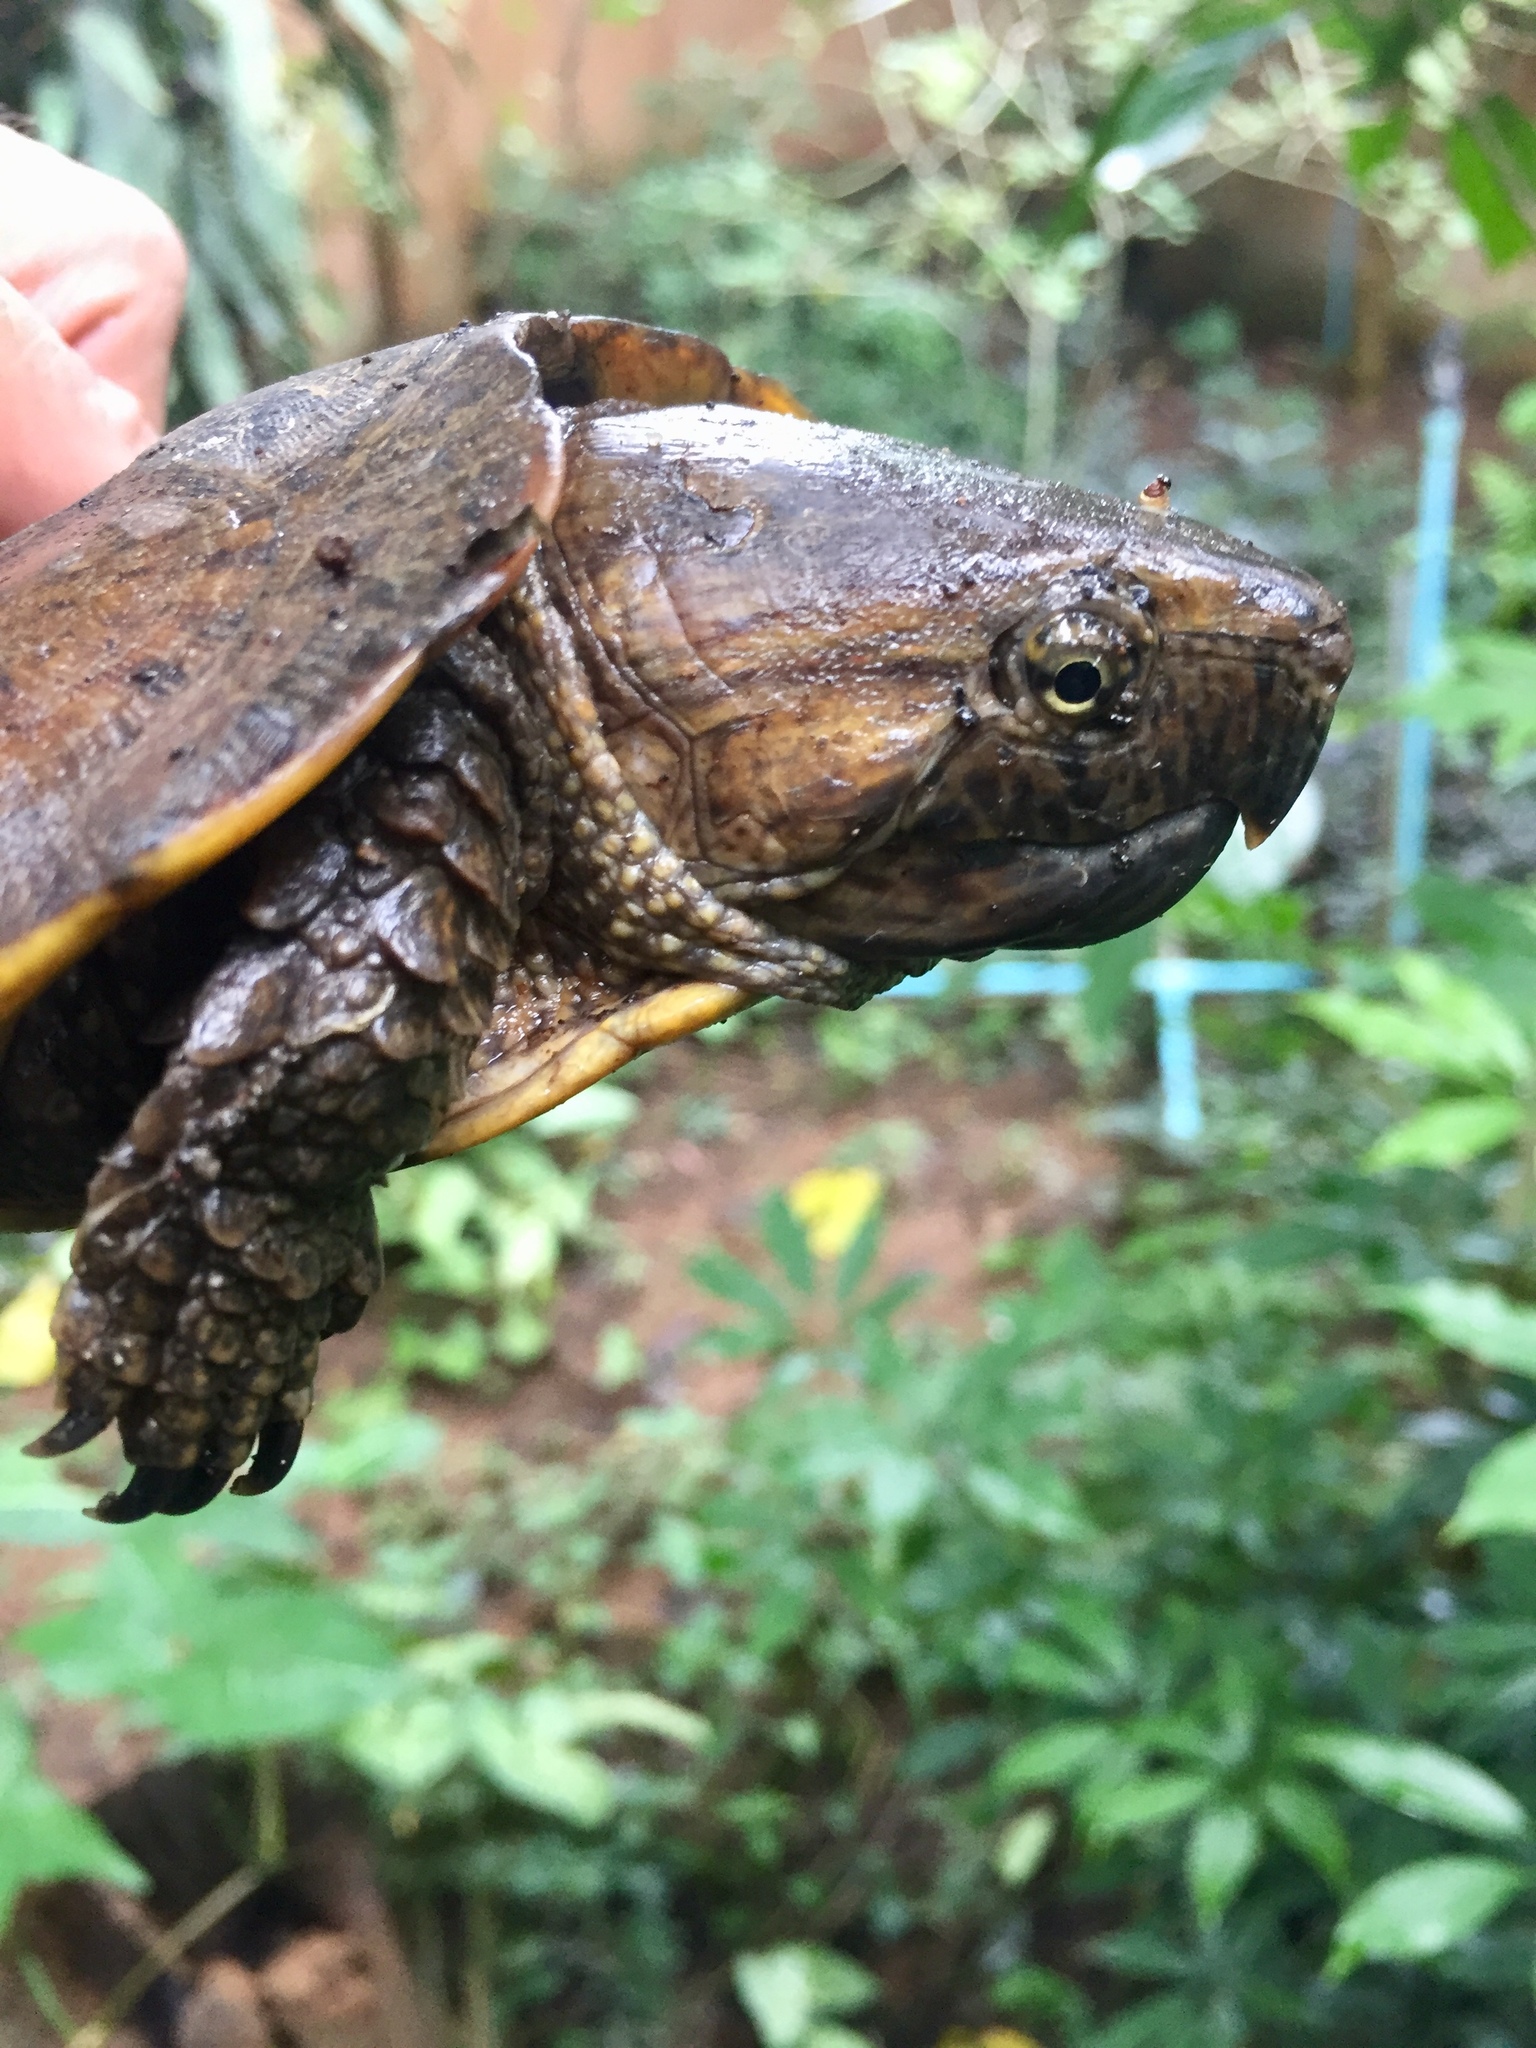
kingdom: Animalia
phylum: Chordata
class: Testudines
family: Platysternidae
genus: Platysternon
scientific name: Platysternon megacephalum
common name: Big-headed turtle
